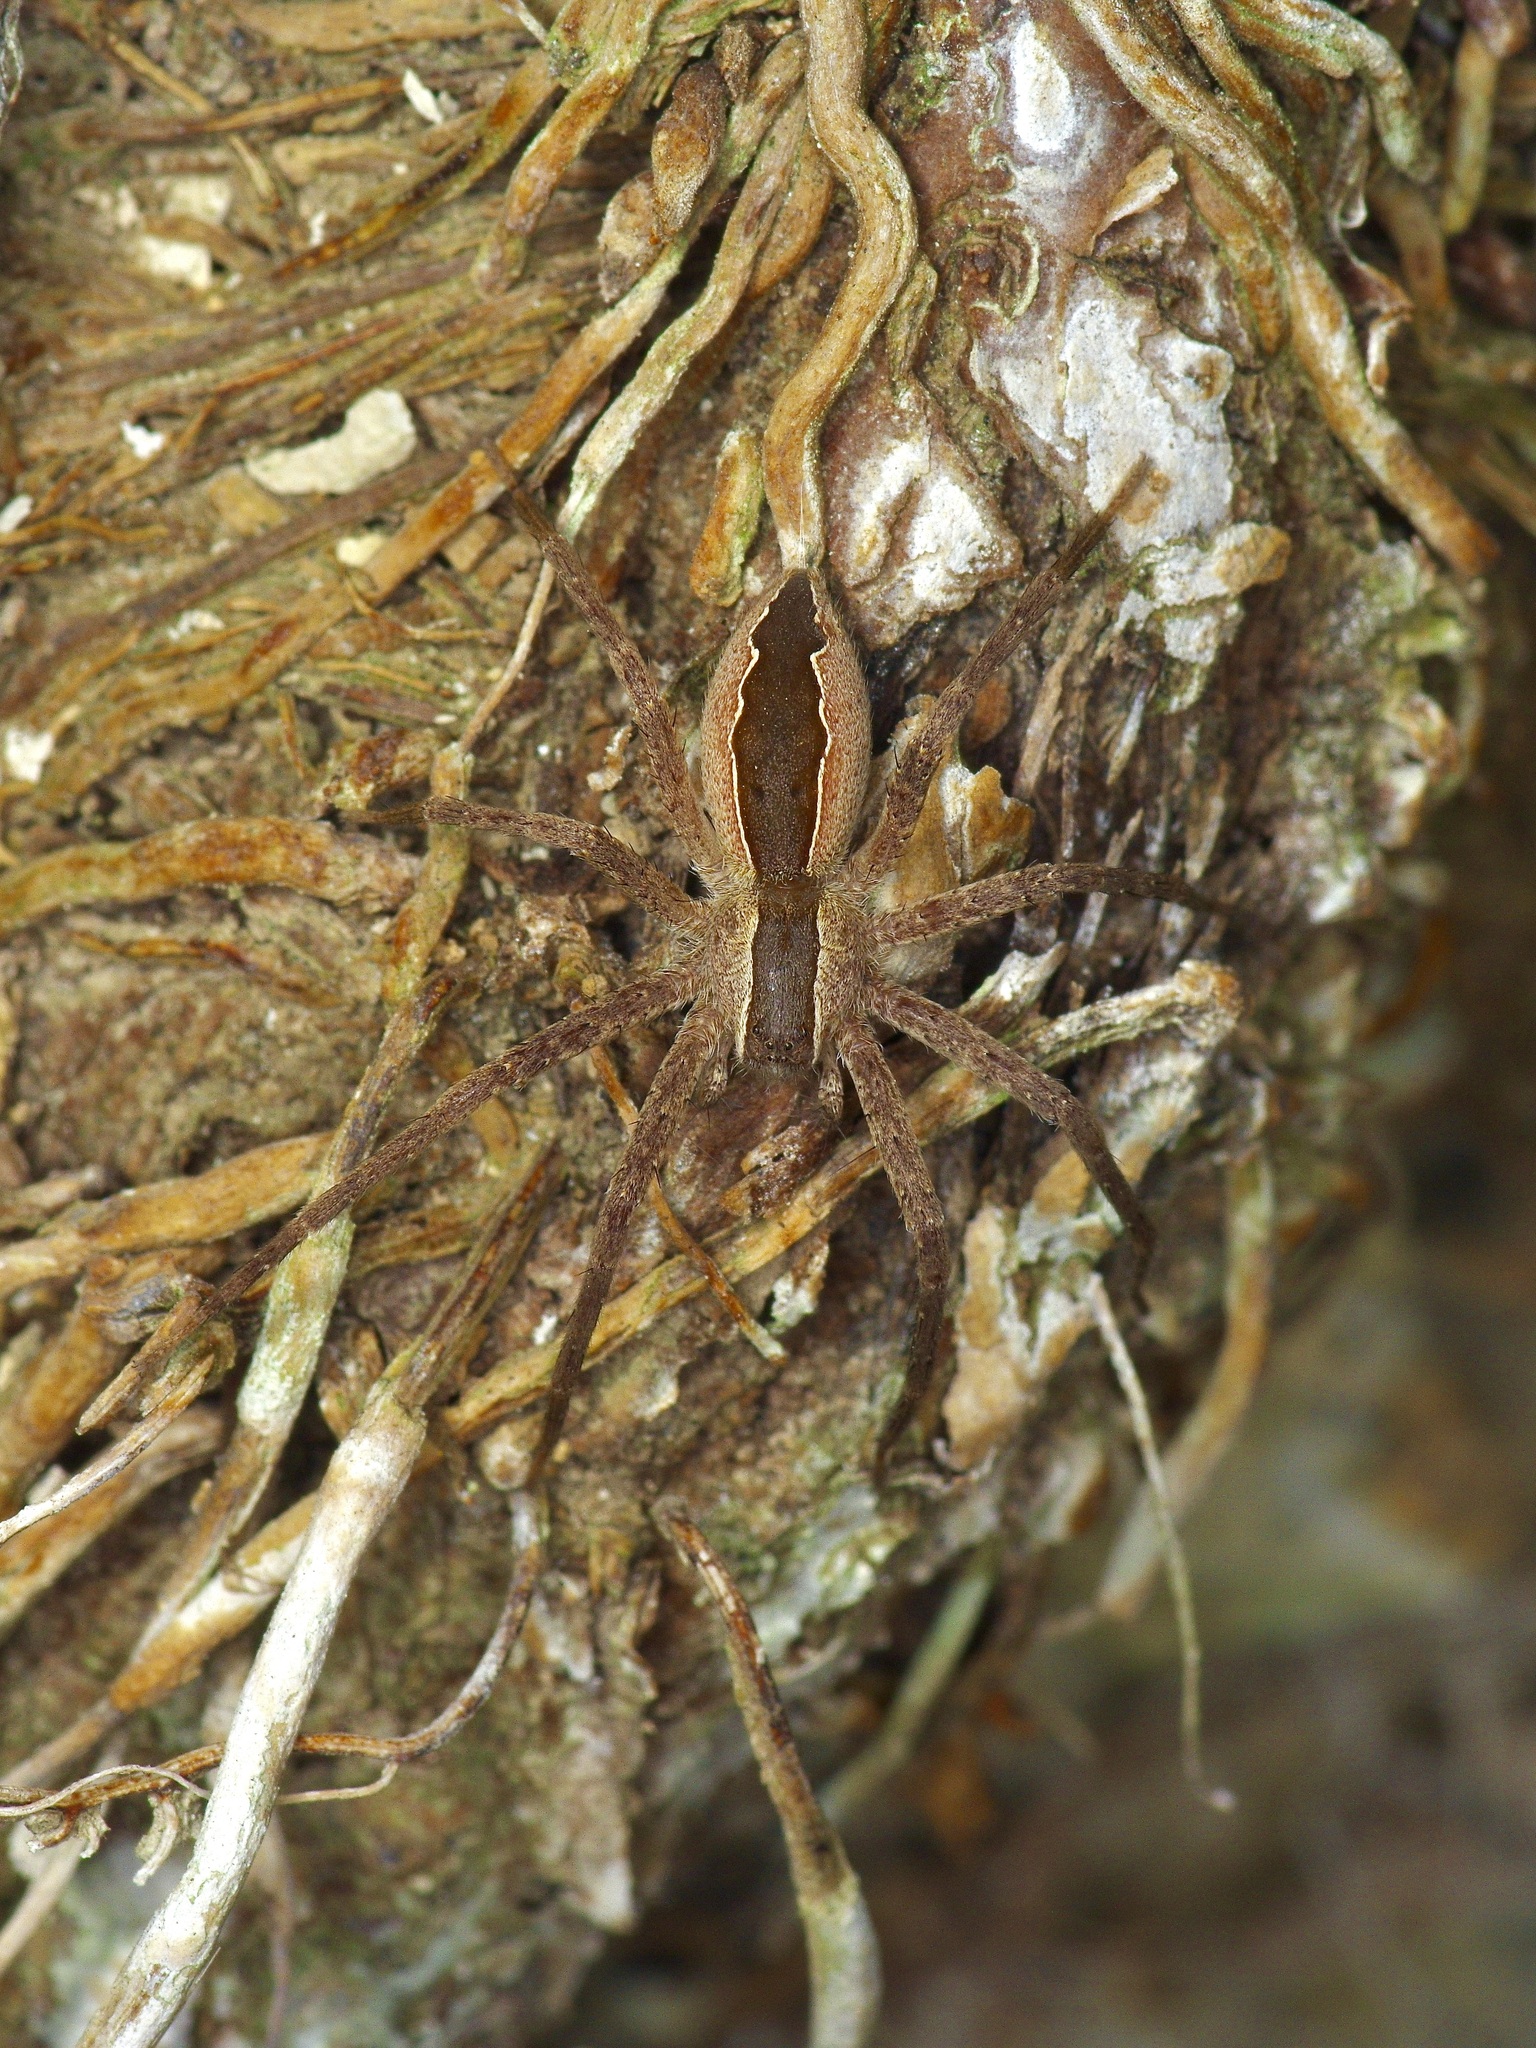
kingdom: Animalia
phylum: Arthropoda
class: Arachnida
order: Araneae
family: Pisauridae
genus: Pisaurina
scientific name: Pisaurina mira
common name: American nursery web spider
